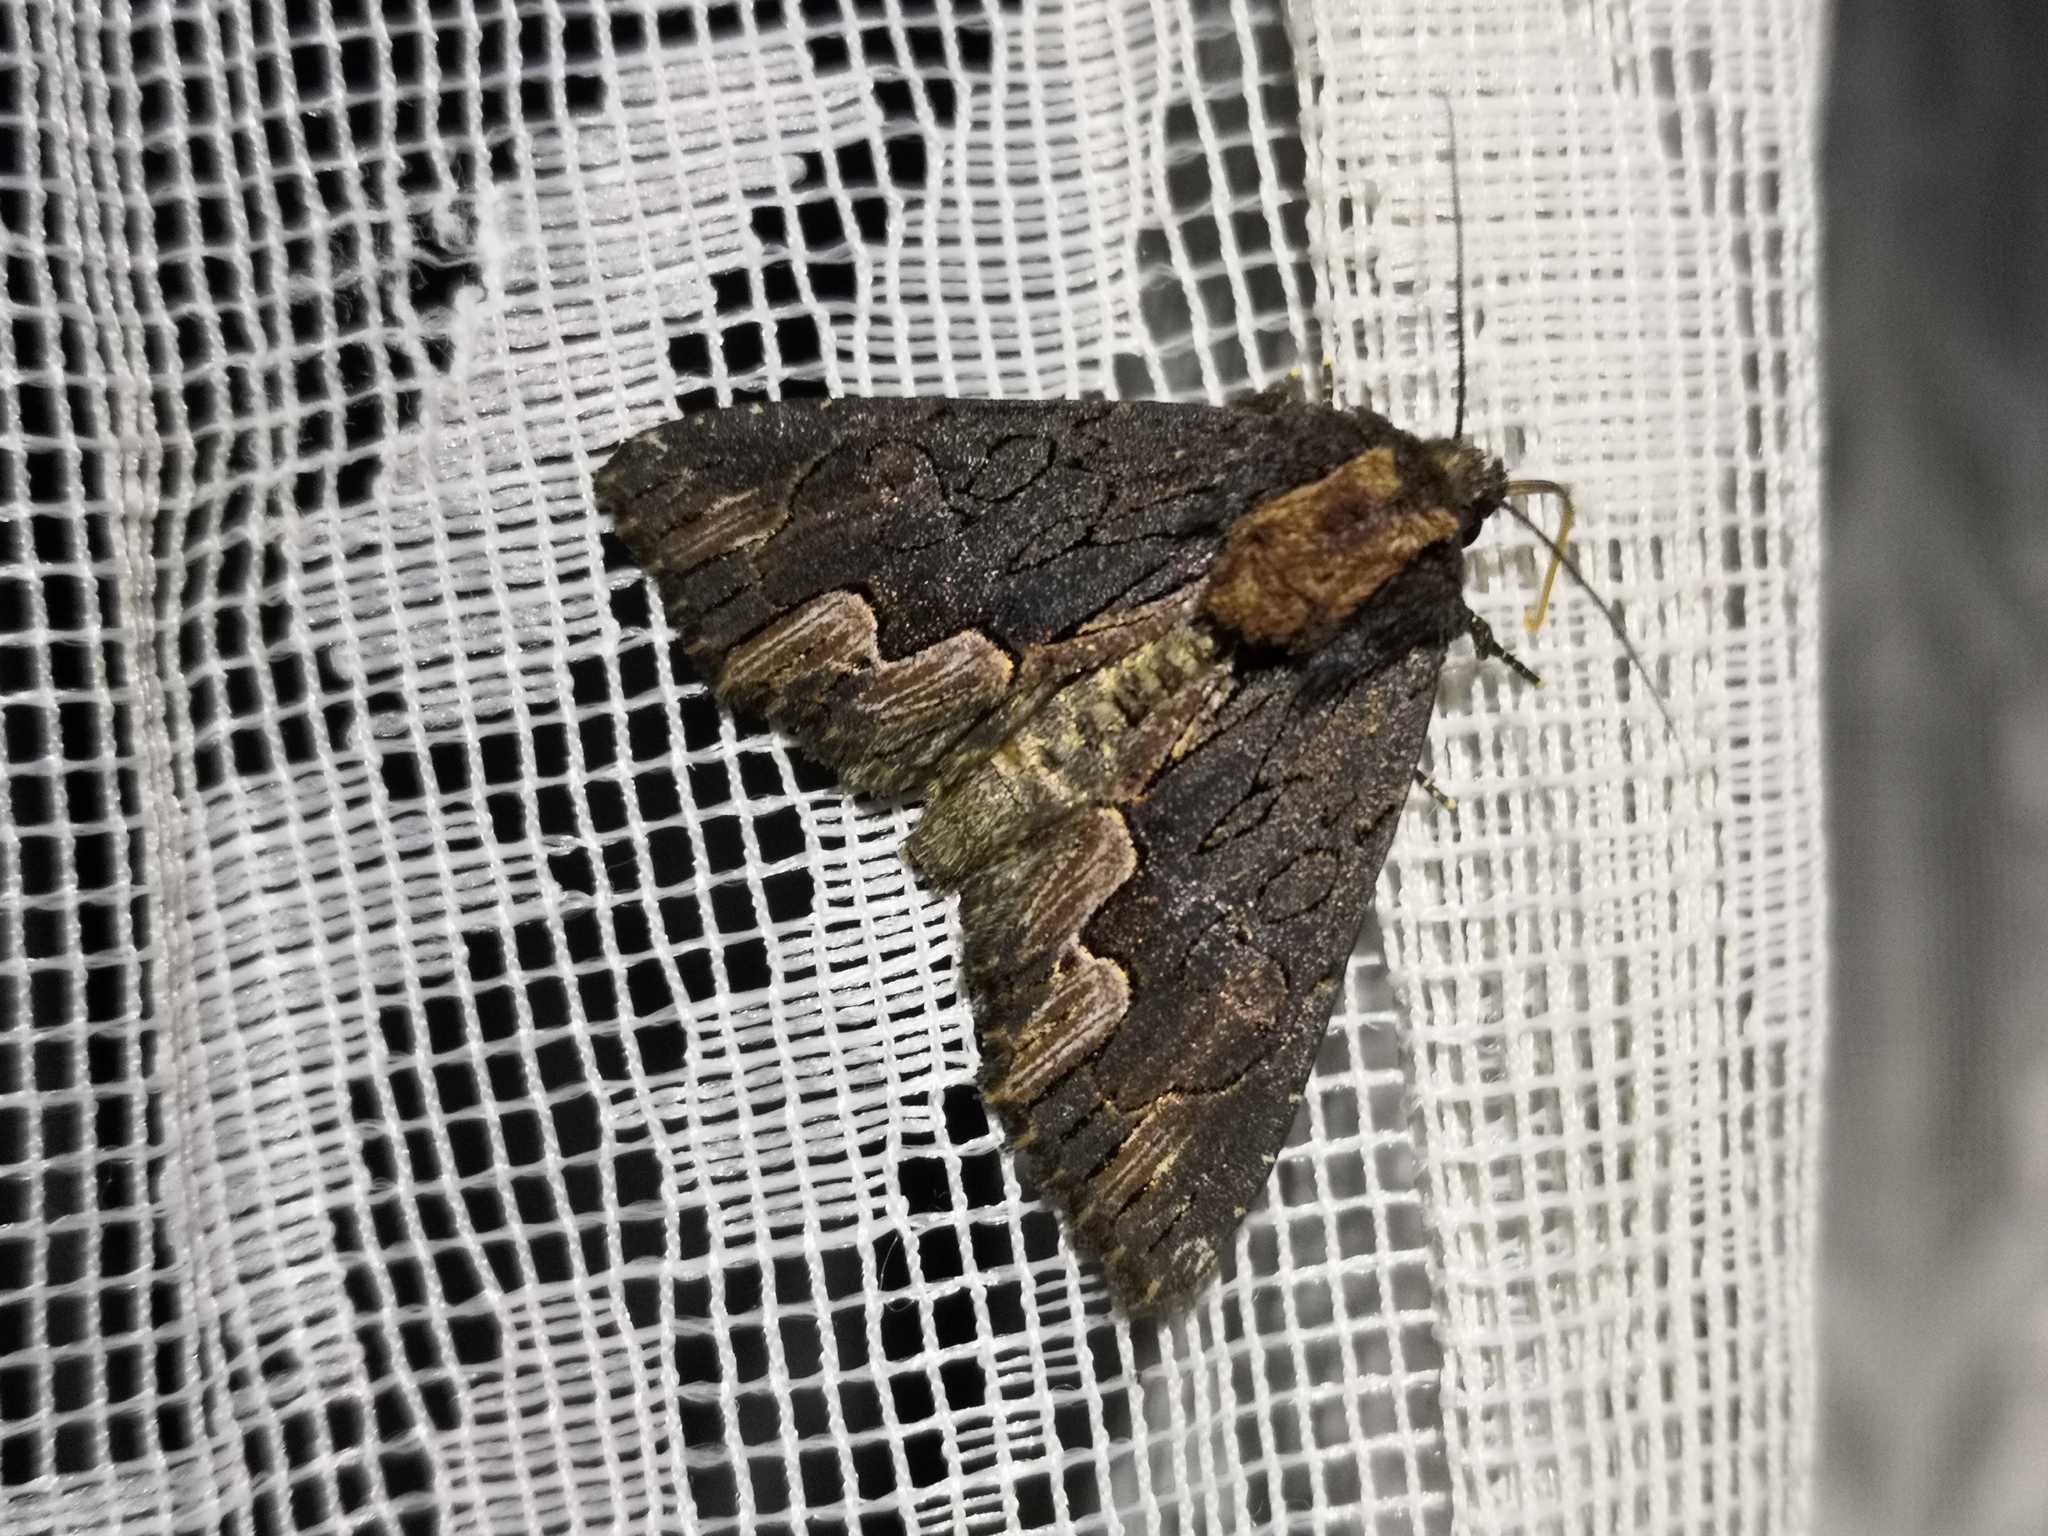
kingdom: Animalia
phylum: Arthropoda
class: Insecta
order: Lepidoptera
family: Noctuidae
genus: Dypterygia
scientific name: Dypterygia scabriuscula
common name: Bird's wing
